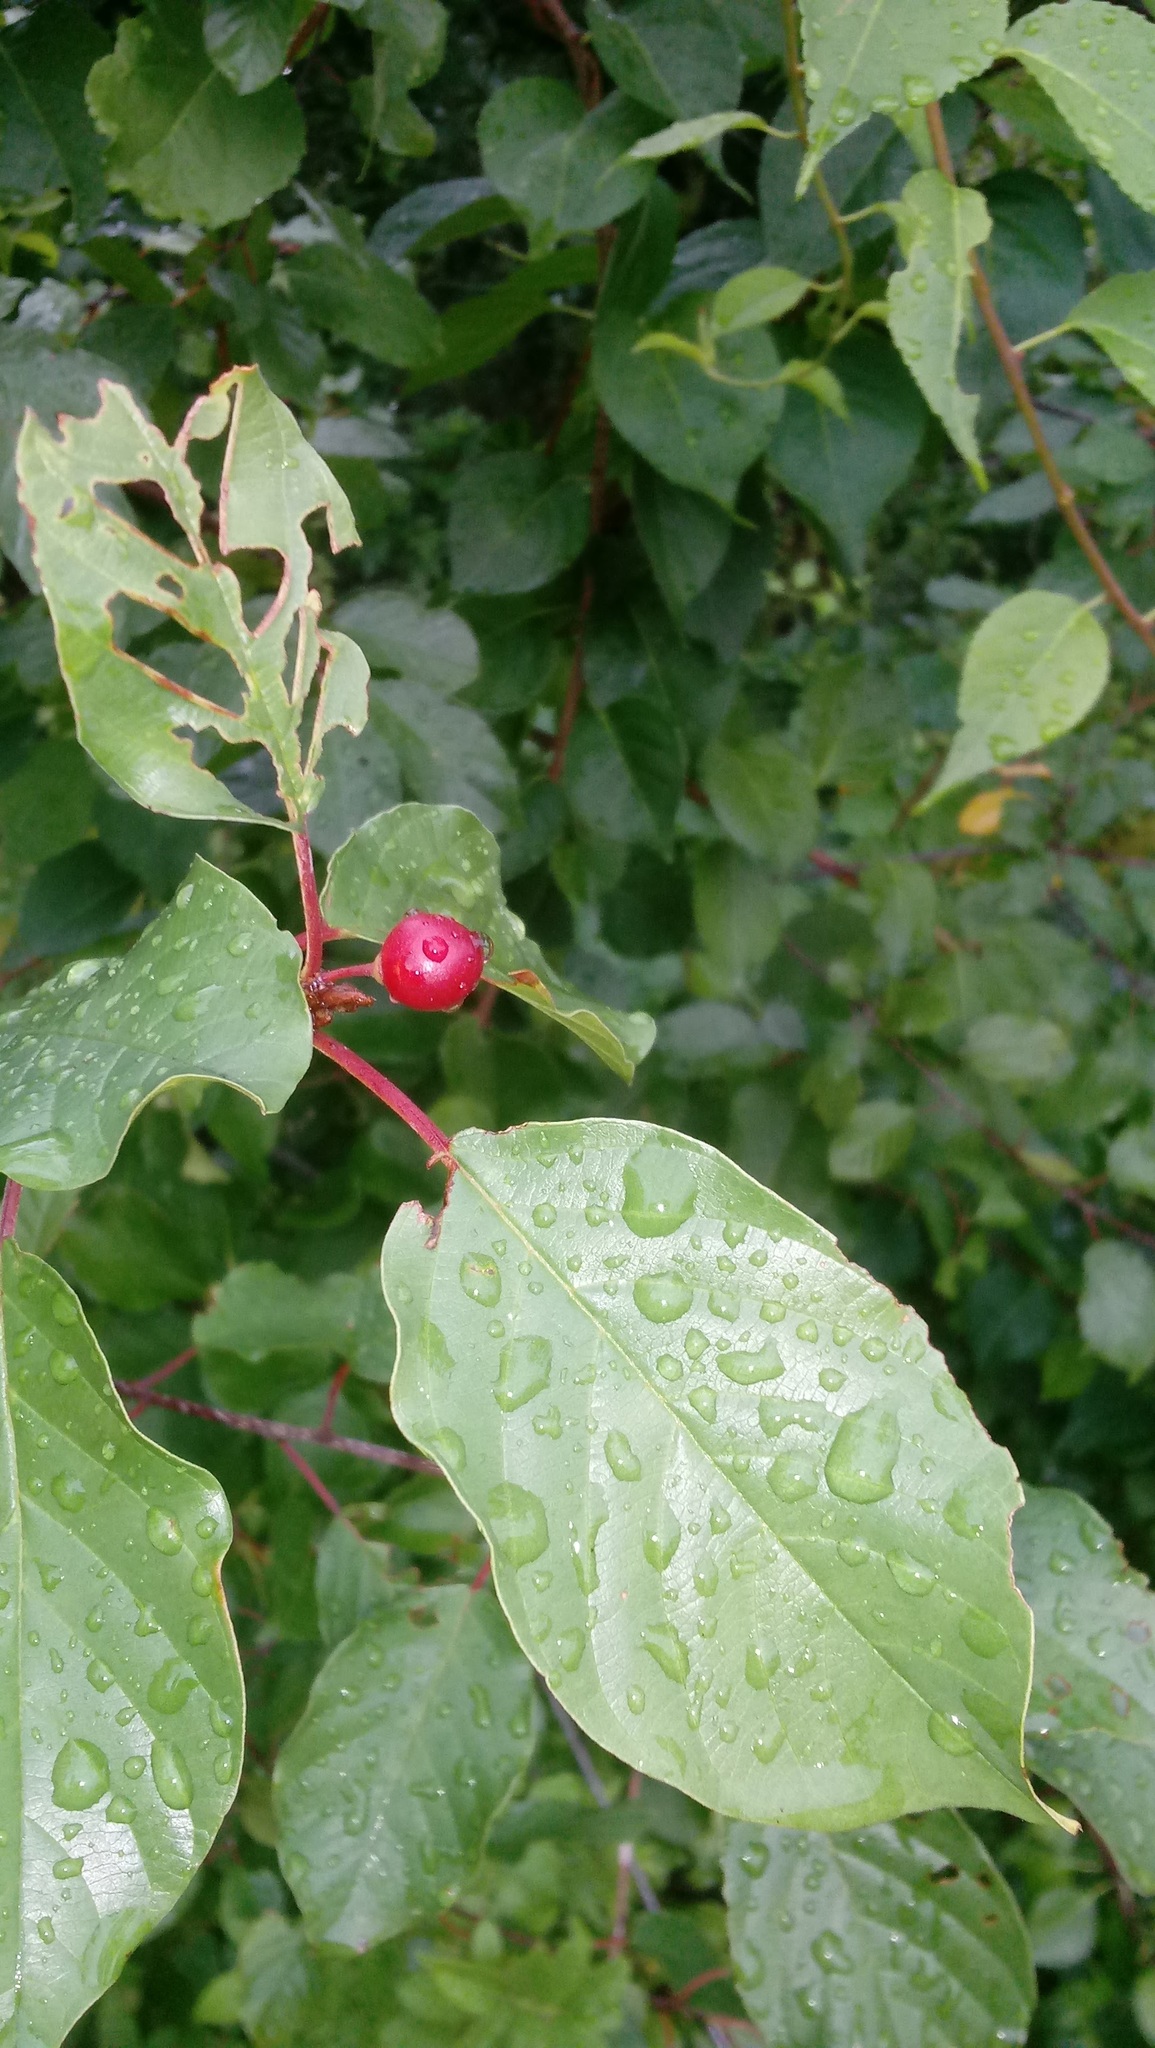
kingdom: Plantae
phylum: Tracheophyta
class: Magnoliopsida
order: Rosales
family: Rhamnaceae
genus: Frangula
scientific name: Frangula alnus
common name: Alder buckthorn
